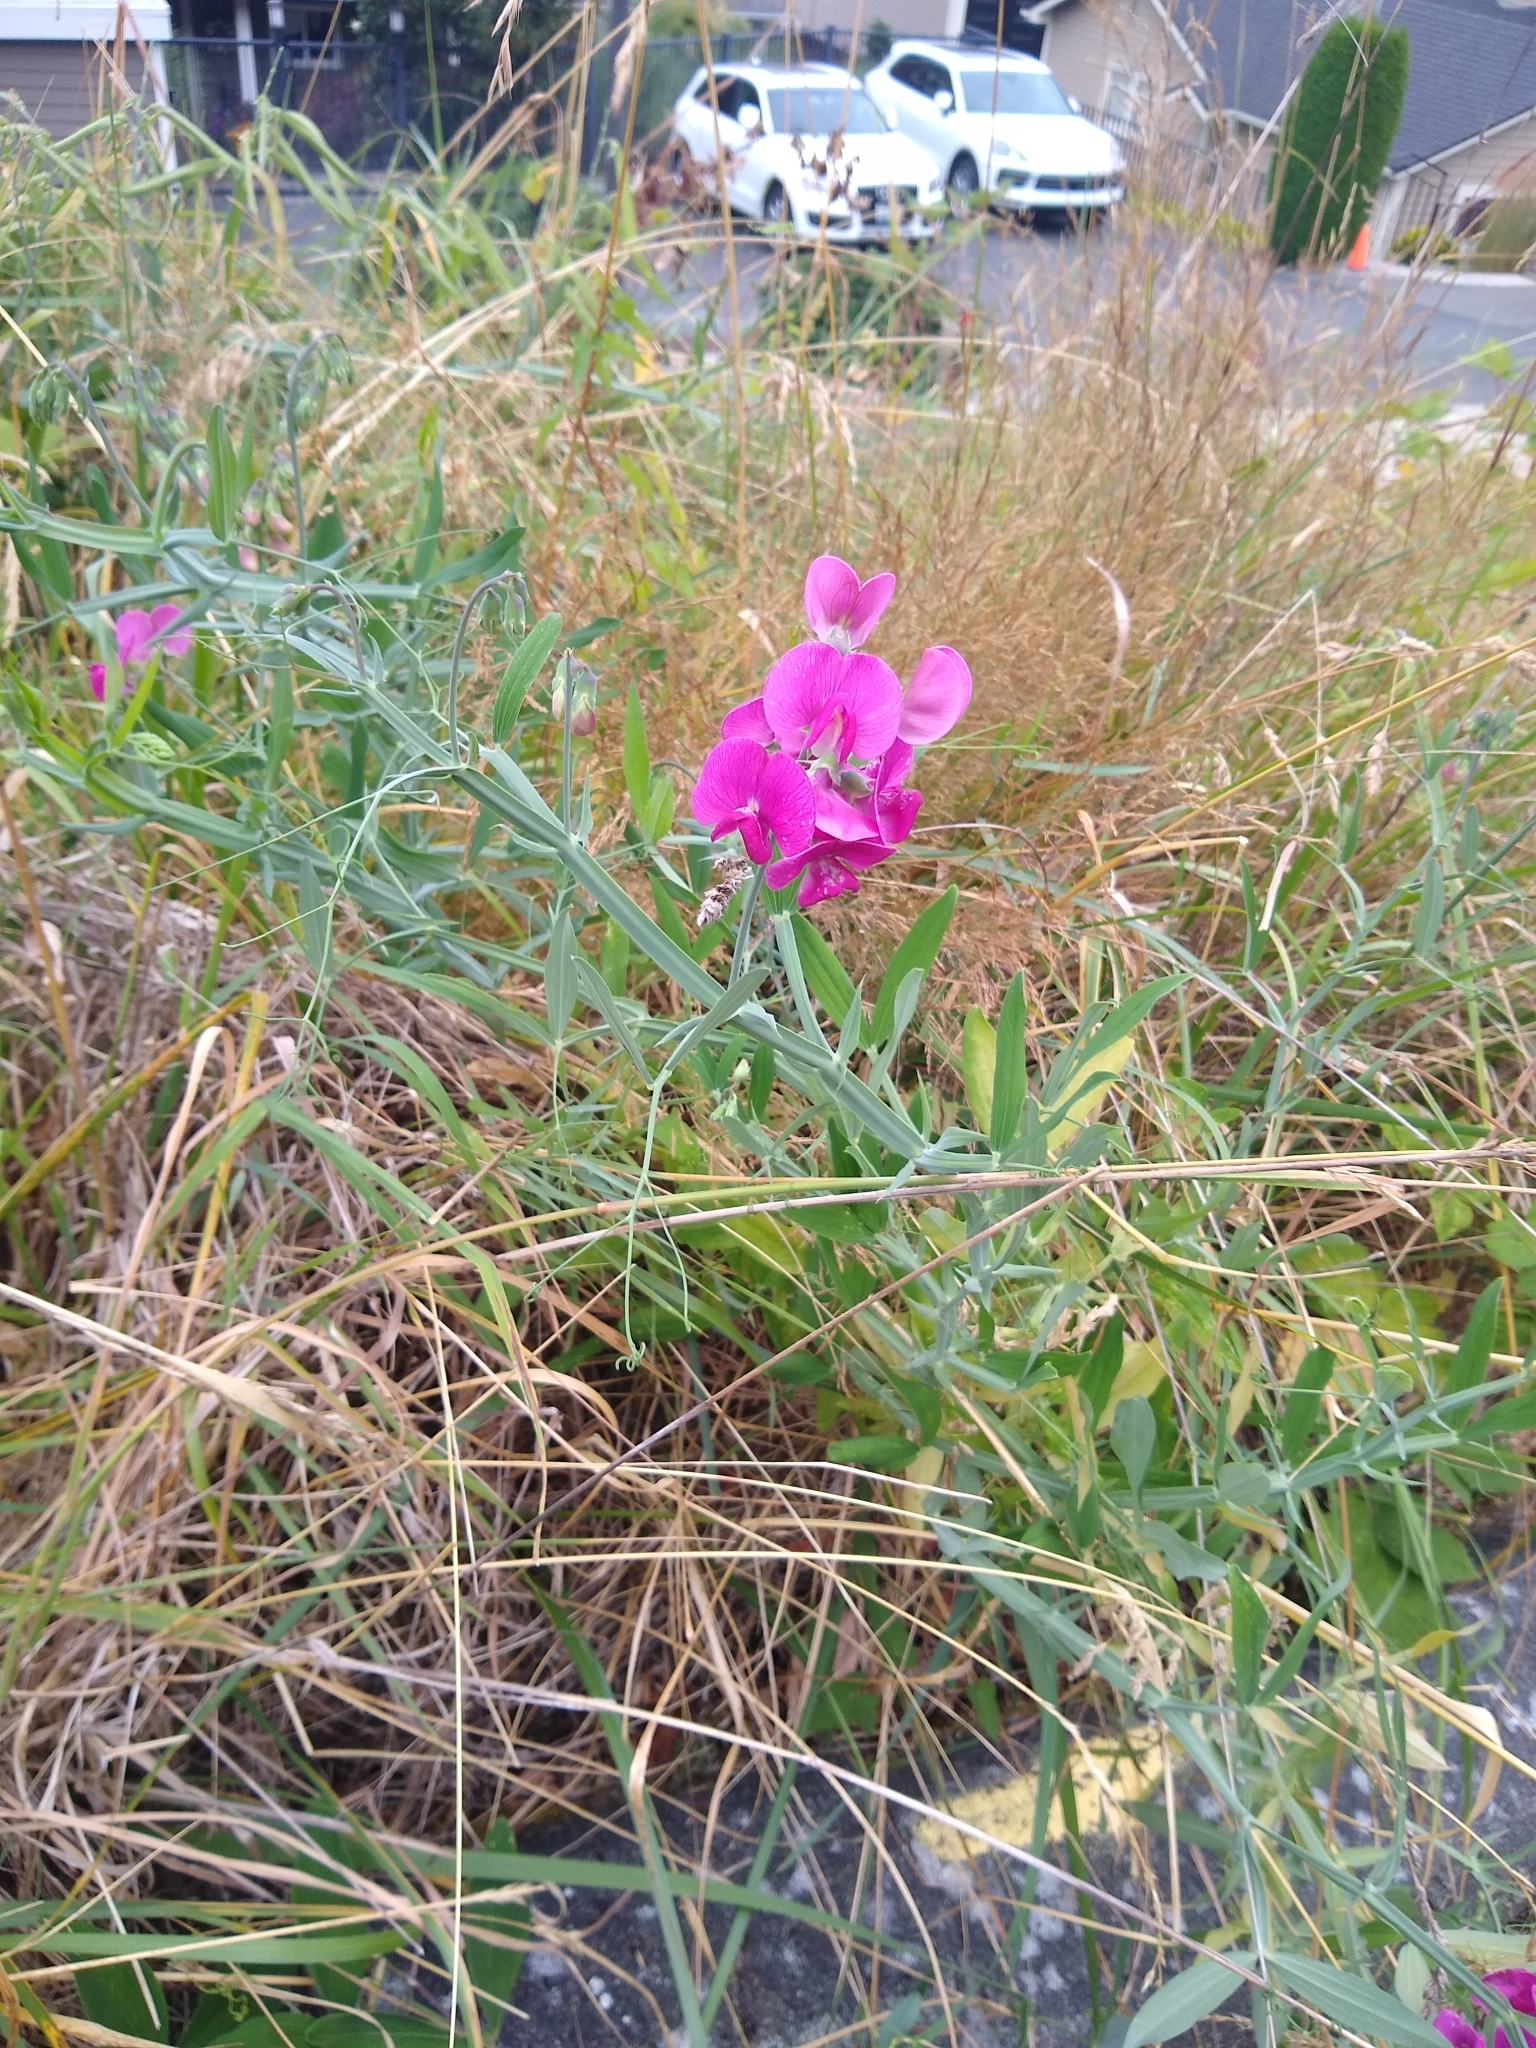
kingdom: Plantae
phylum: Tracheophyta
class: Magnoliopsida
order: Fabales
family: Fabaceae
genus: Lathyrus
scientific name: Lathyrus latifolius
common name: Perennial pea
